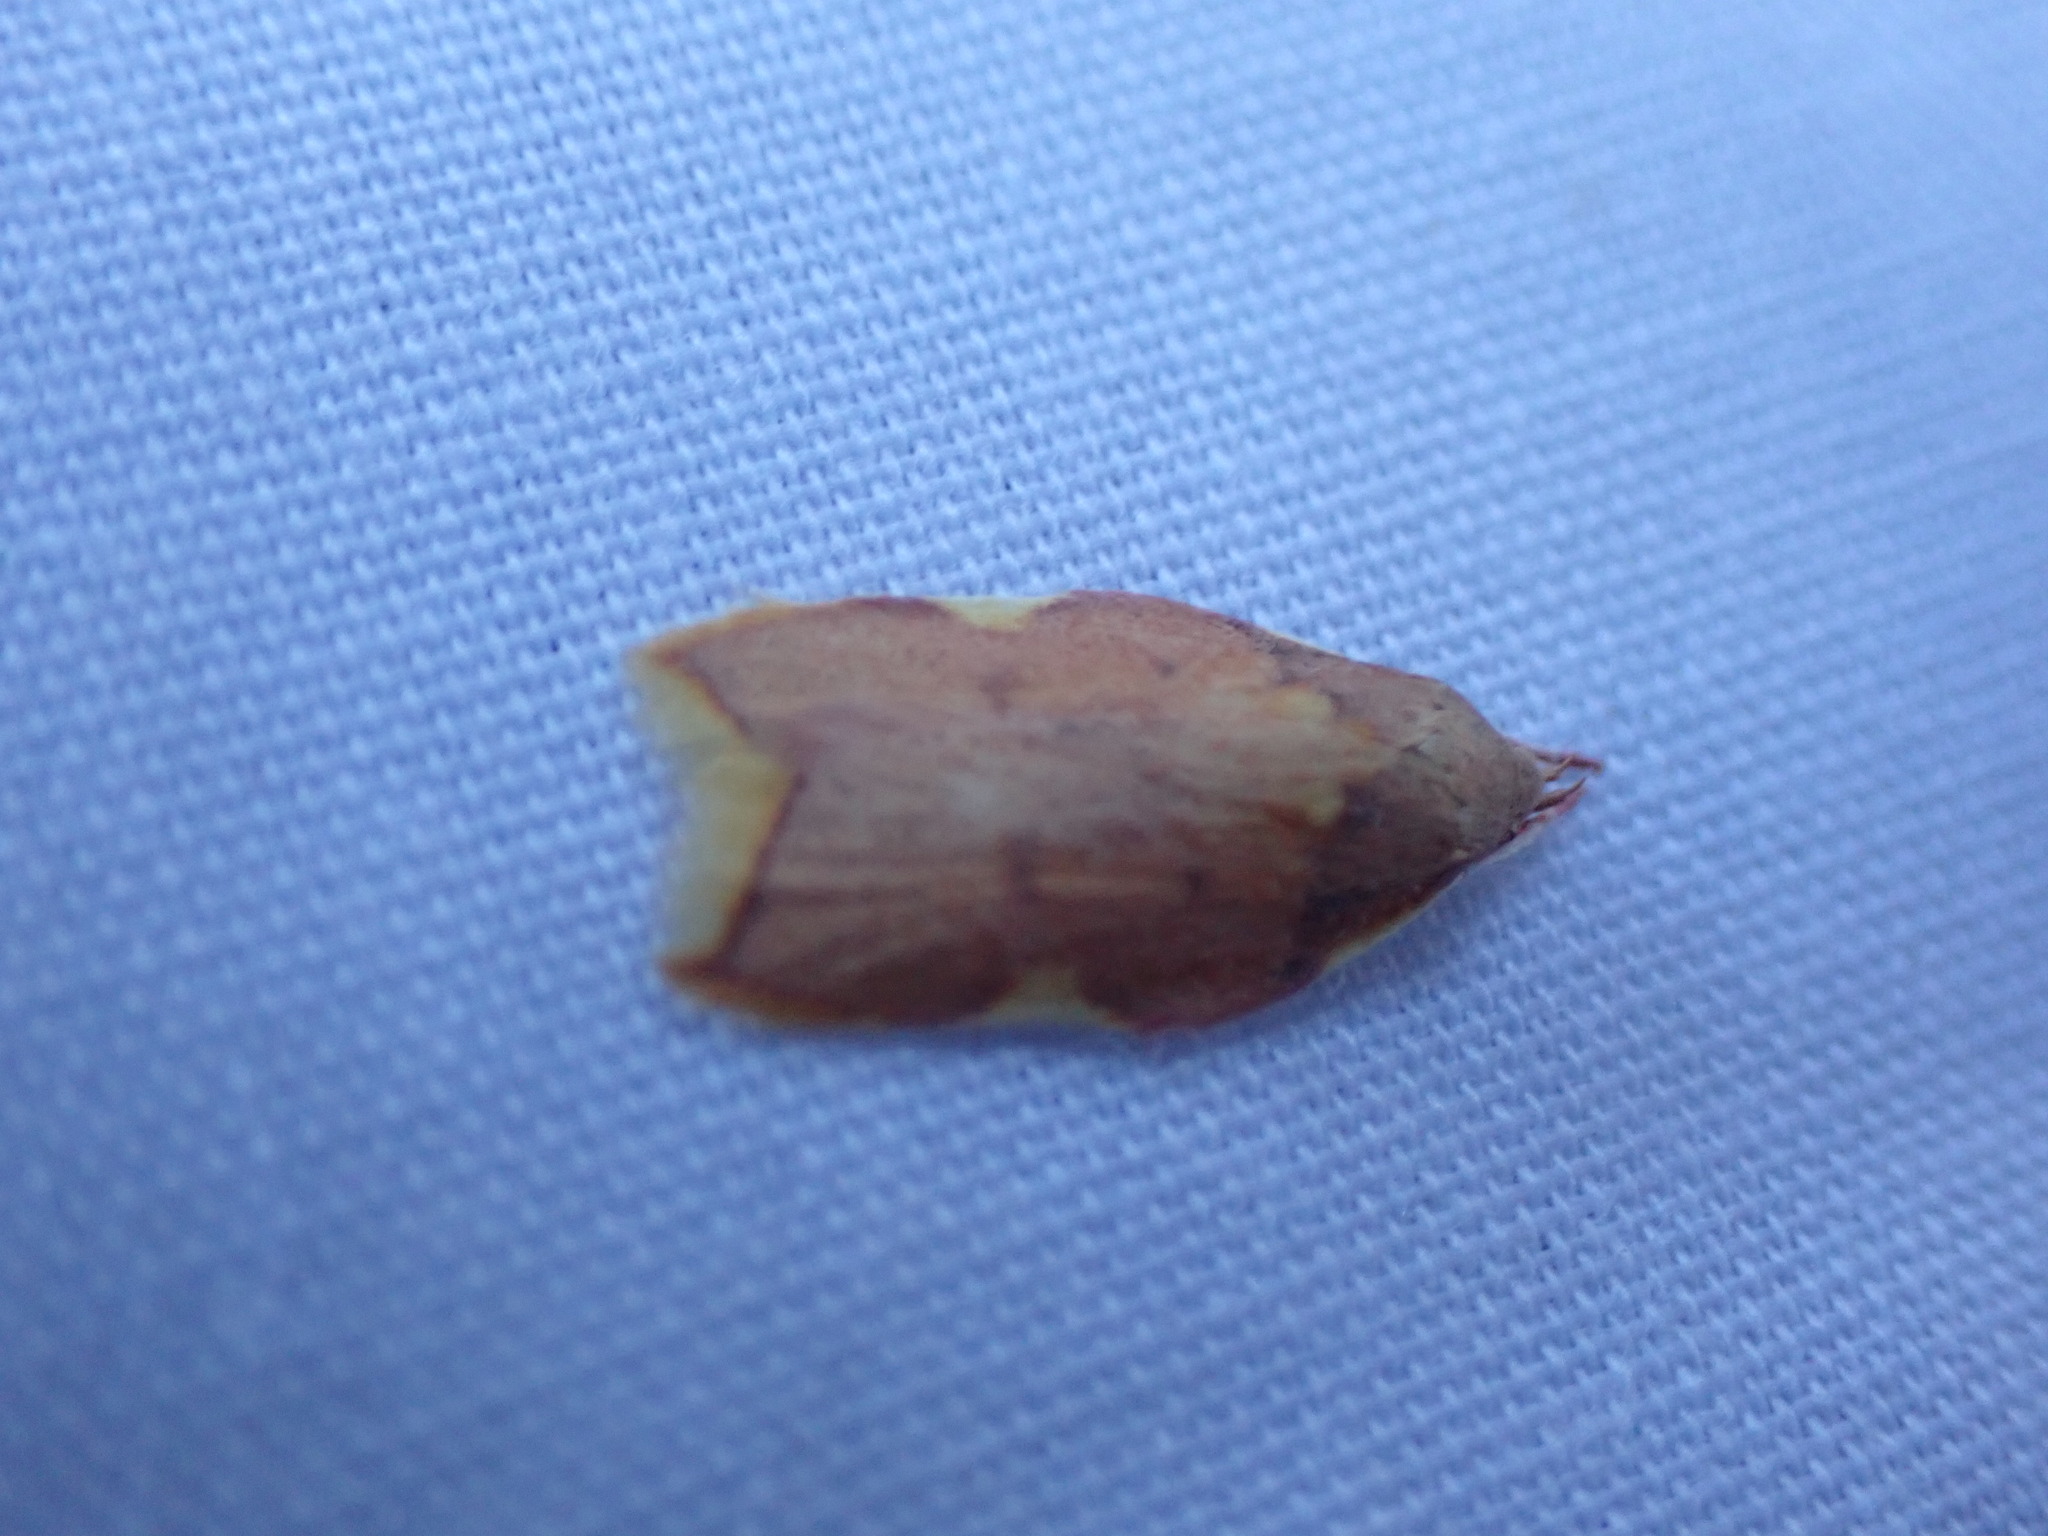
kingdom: Animalia
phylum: Arthropoda
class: Insecta
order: Lepidoptera
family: Peleopodidae
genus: Carcina
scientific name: Carcina quercana
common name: Moth
